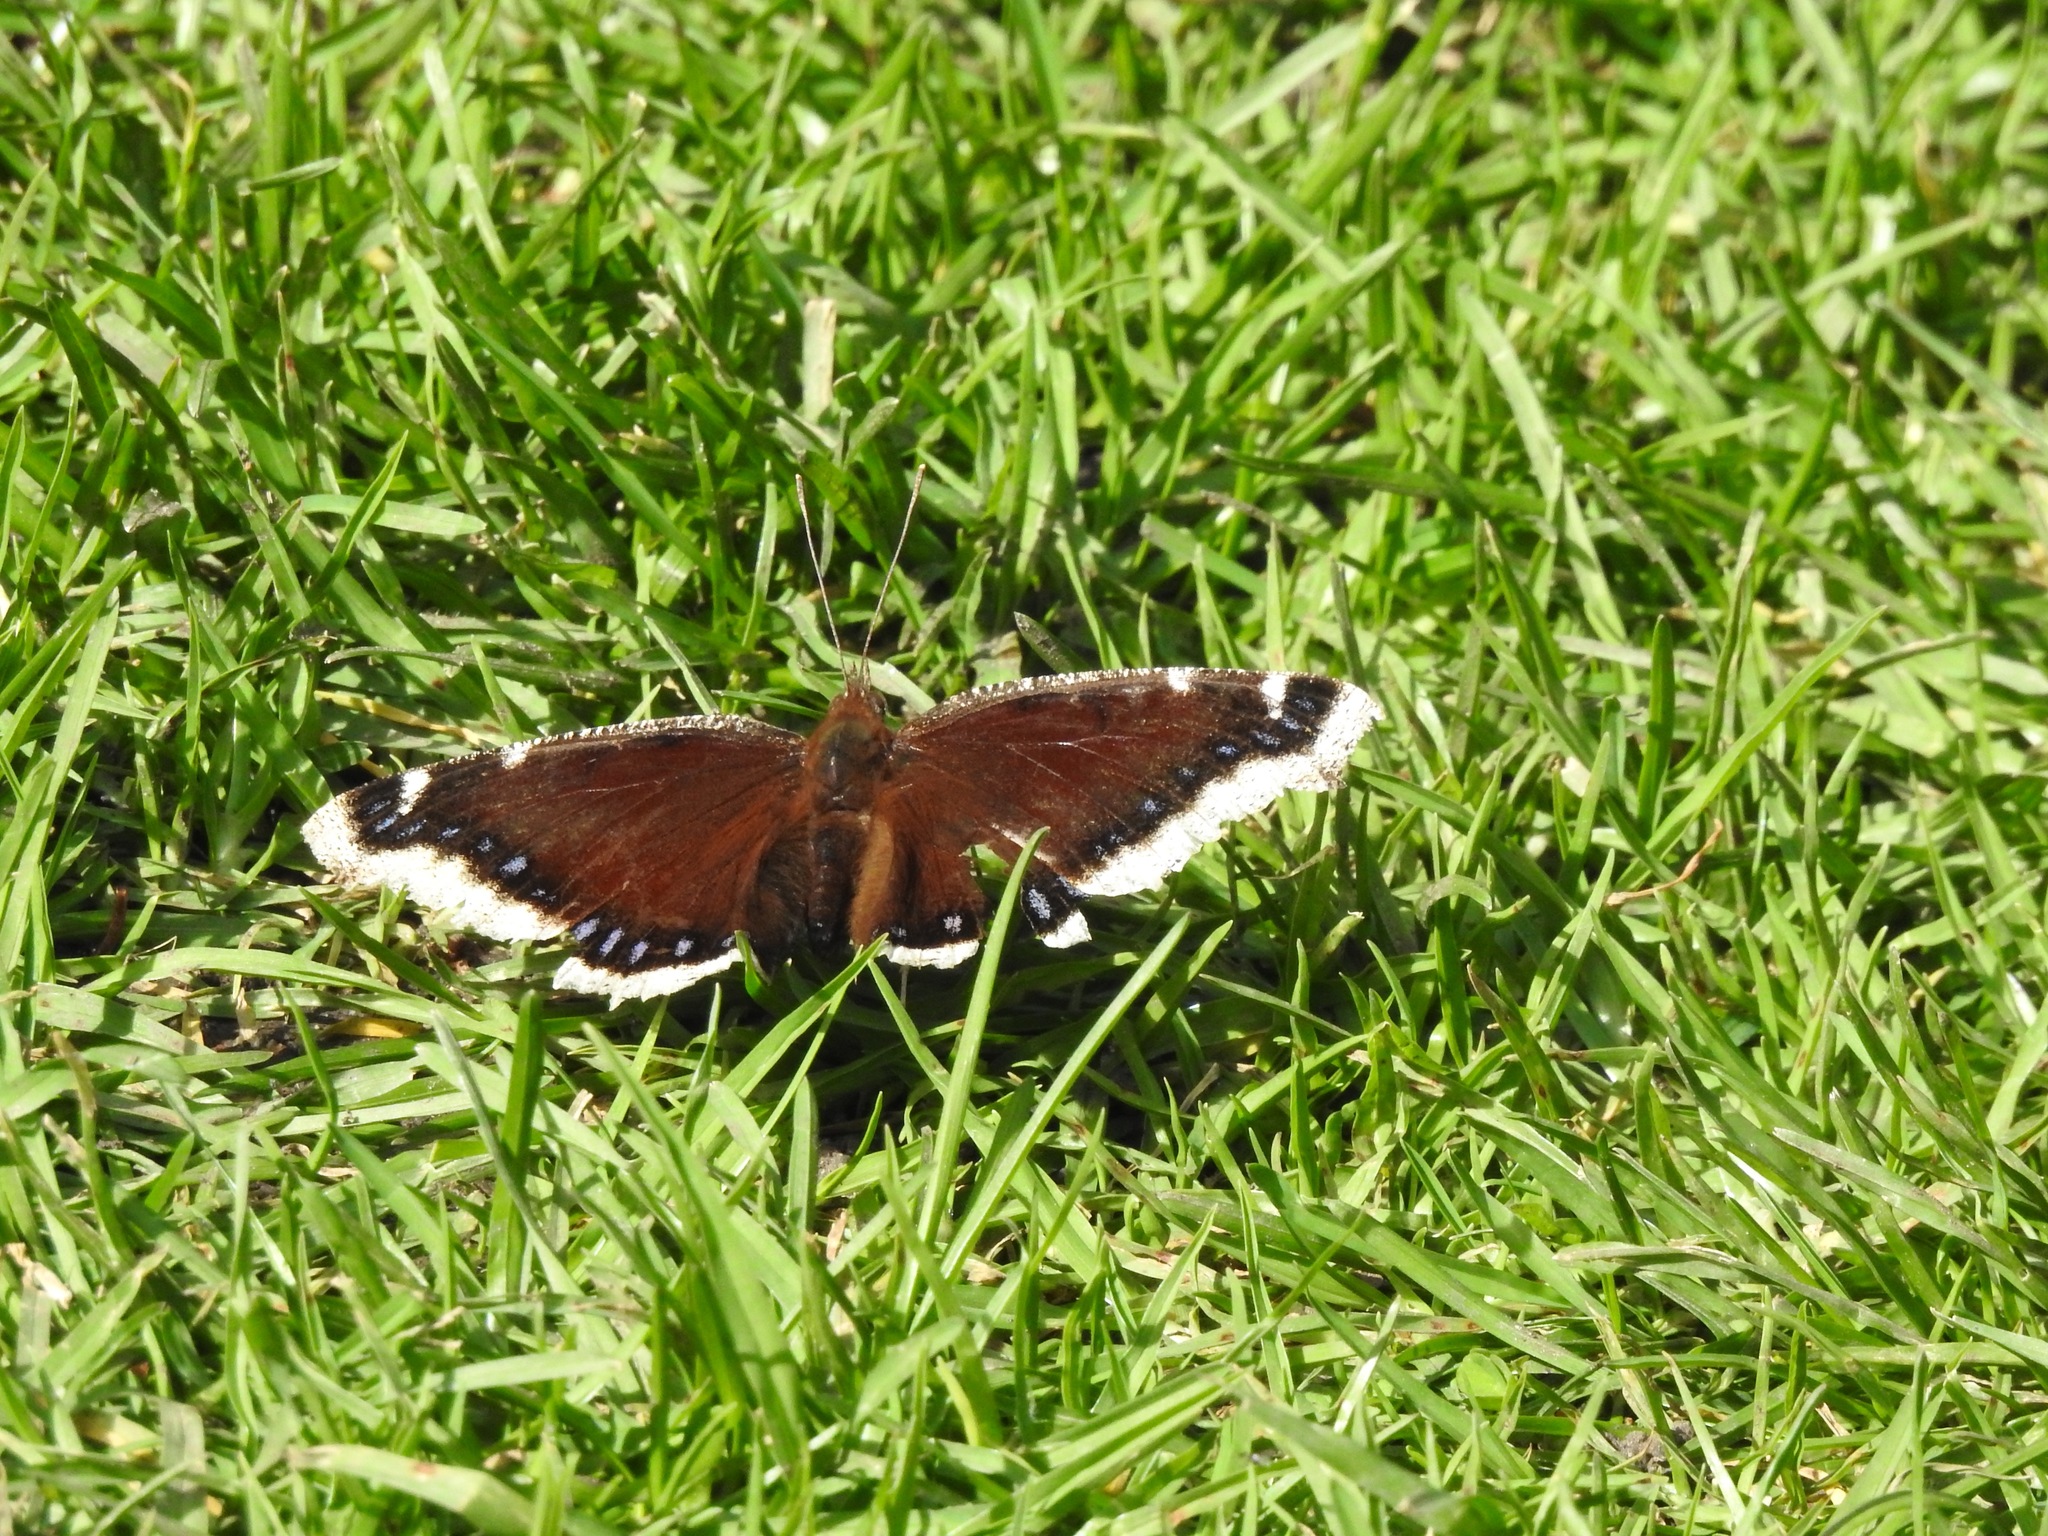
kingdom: Animalia
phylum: Arthropoda
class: Insecta
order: Lepidoptera
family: Nymphalidae
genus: Nymphalis
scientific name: Nymphalis antiopa
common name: Camberwell beauty
